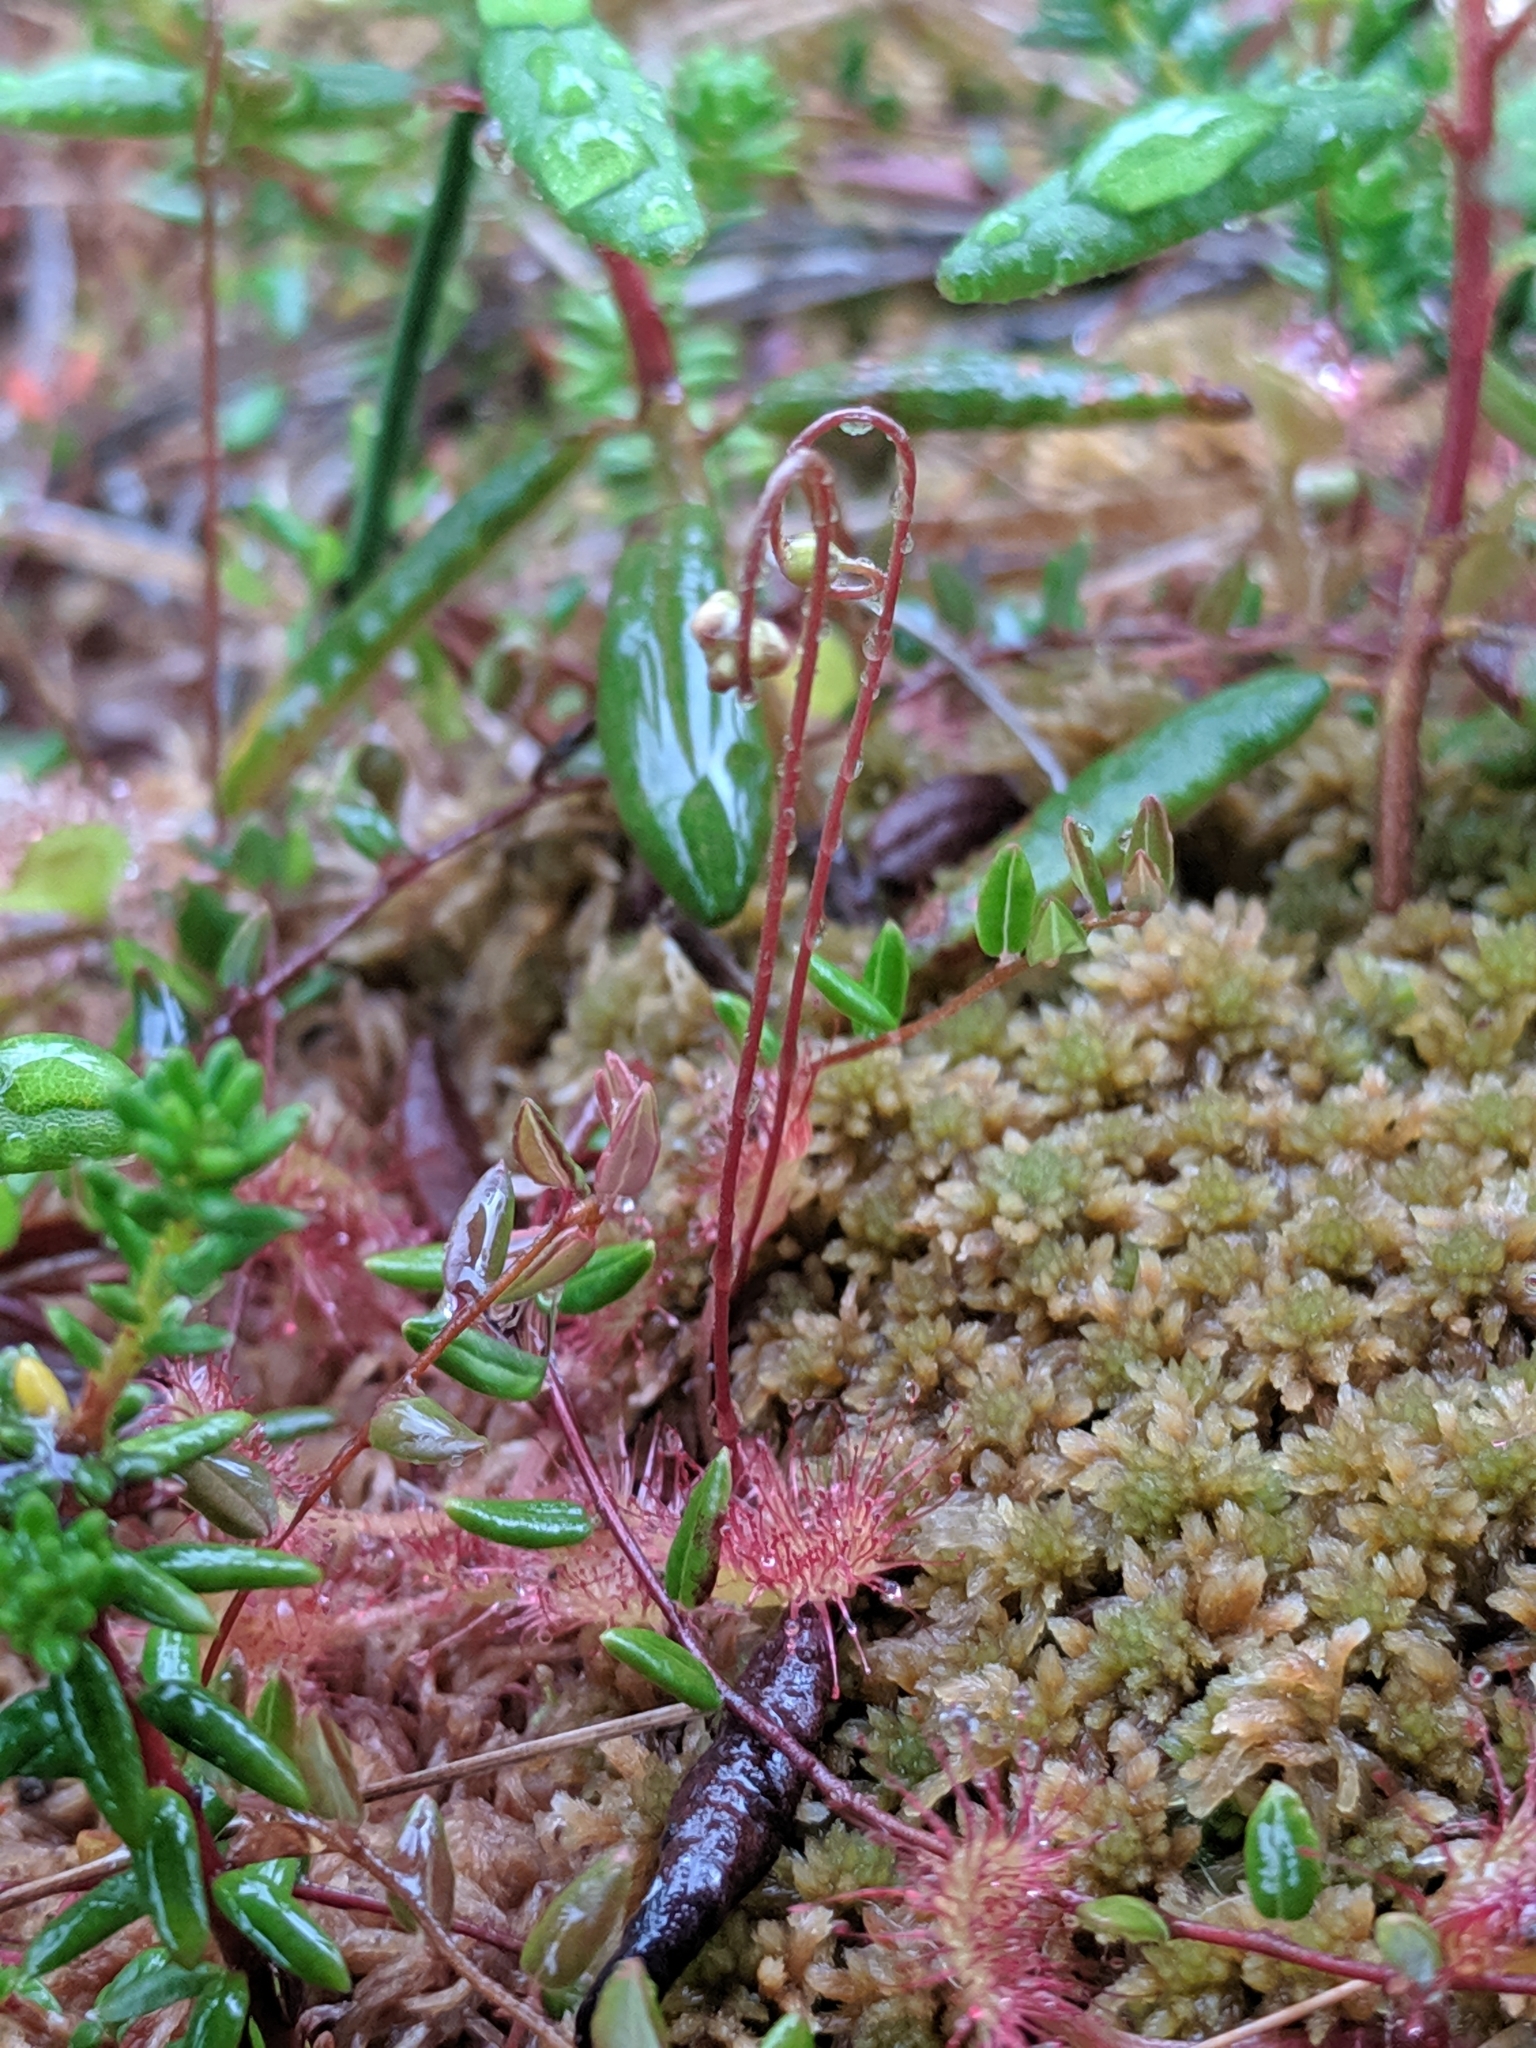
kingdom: Plantae
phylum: Tracheophyta
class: Magnoliopsida
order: Caryophyllales
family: Droseraceae
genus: Drosera
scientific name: Drosera rotundifolia
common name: Round-leaved sundew
